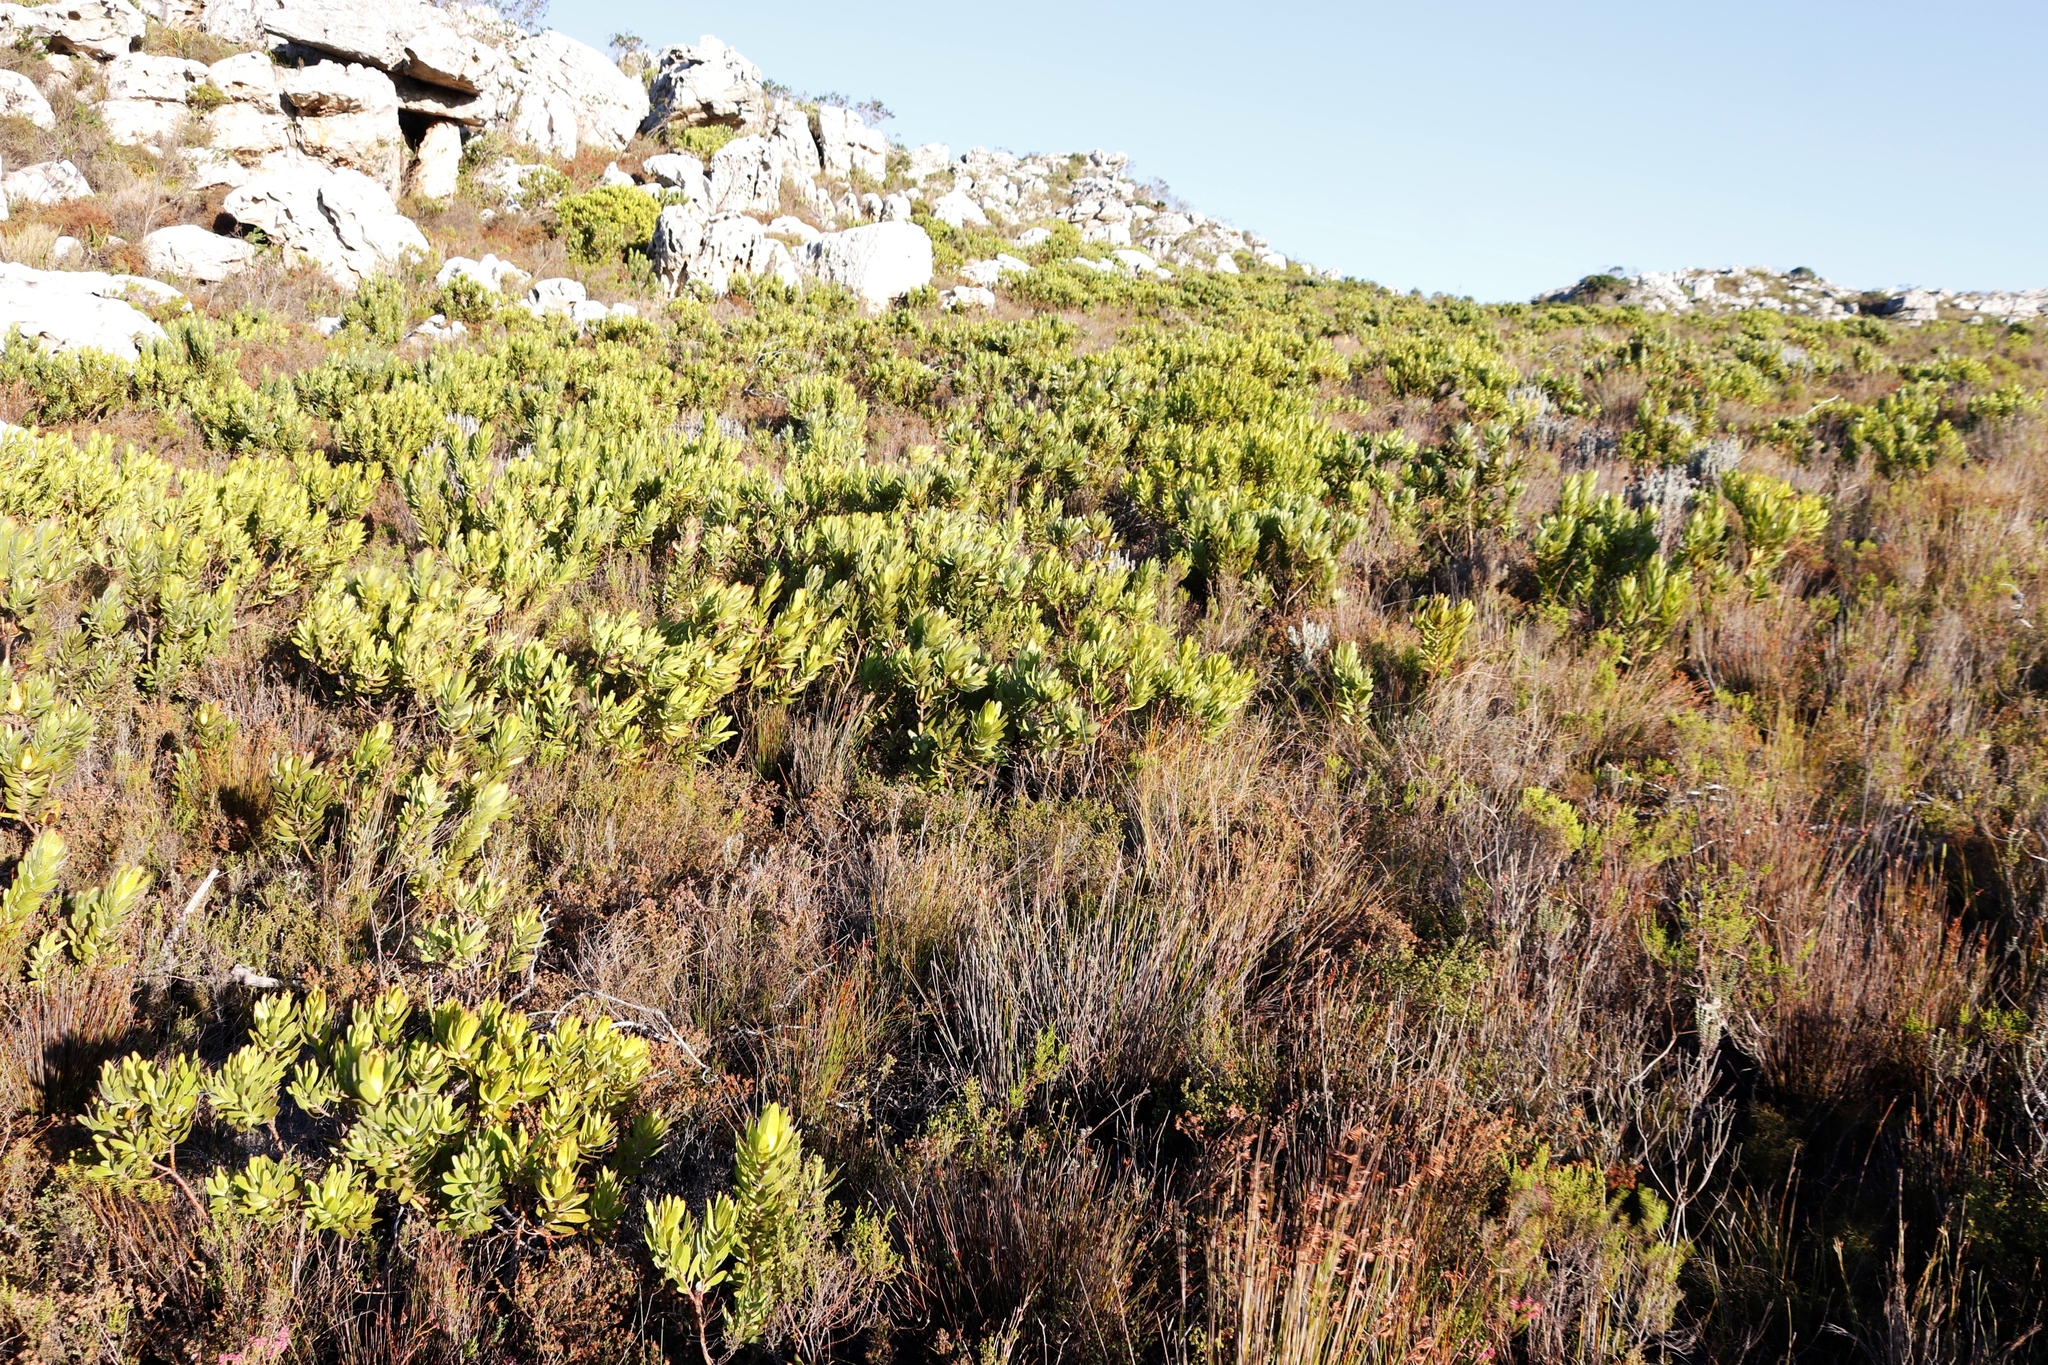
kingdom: Plantae
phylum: Tracheophyta
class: Magnoliopsida
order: Proteales
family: Proteaceae
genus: Leucadendron
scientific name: Leucadendron laureolum
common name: Golden sunshinebush
